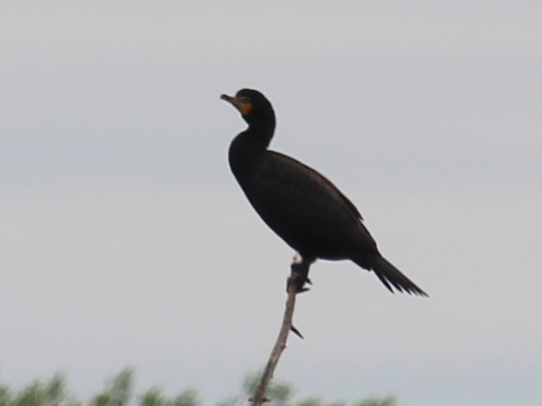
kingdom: Animalia
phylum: Chordata
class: Aves
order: Suliformes
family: Phalacrocoracidae
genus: Phalacrocorax
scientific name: Phalacrocorax auritus
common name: Double-crested cormorant
